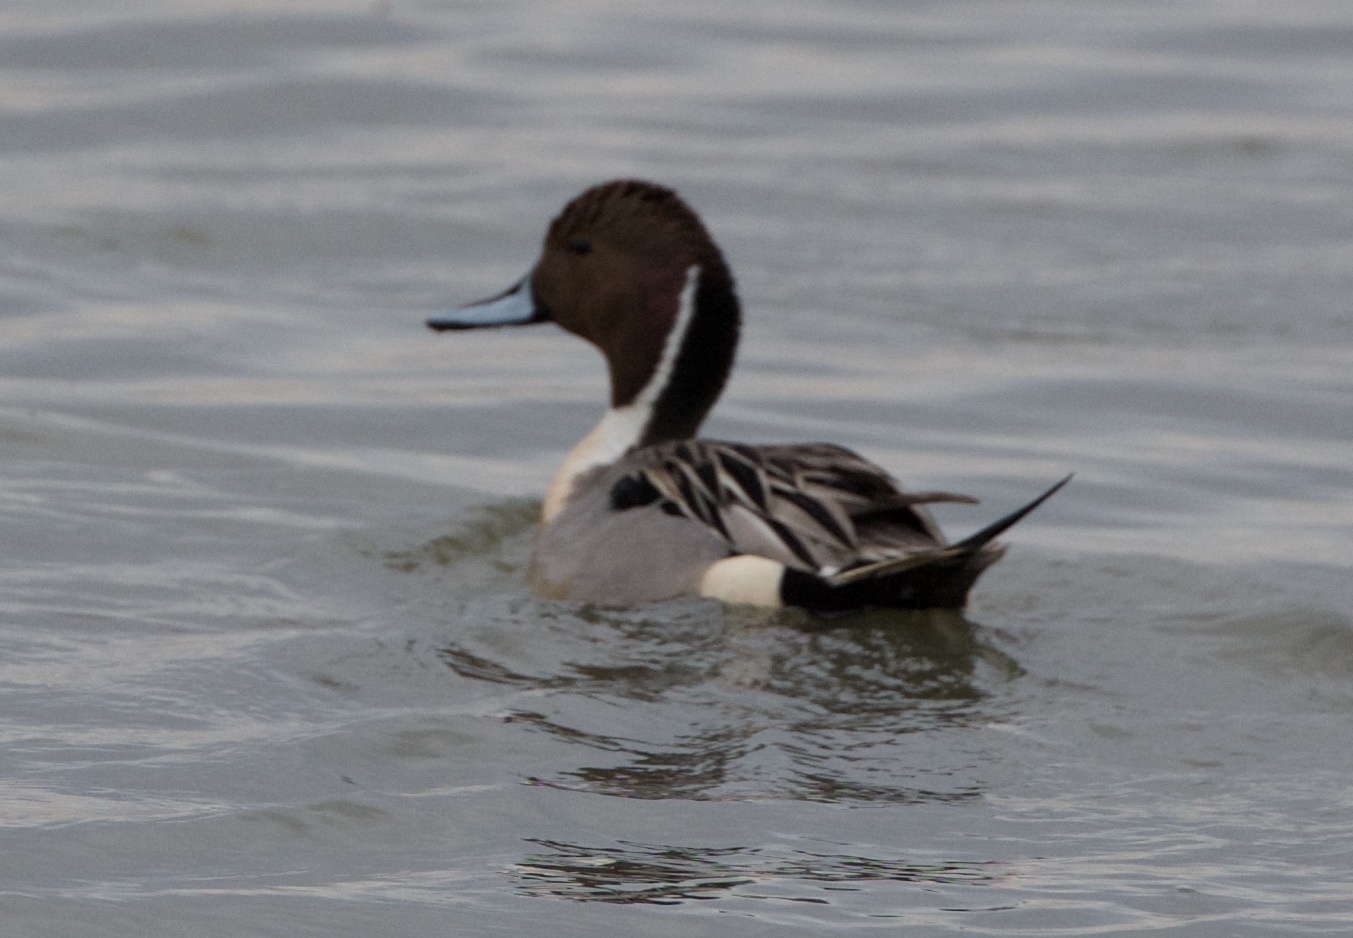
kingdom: Animalia
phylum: Chordata
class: Aves
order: Anseriformes
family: Anatidae
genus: Anas
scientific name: Anas acuta
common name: Northern pintail
